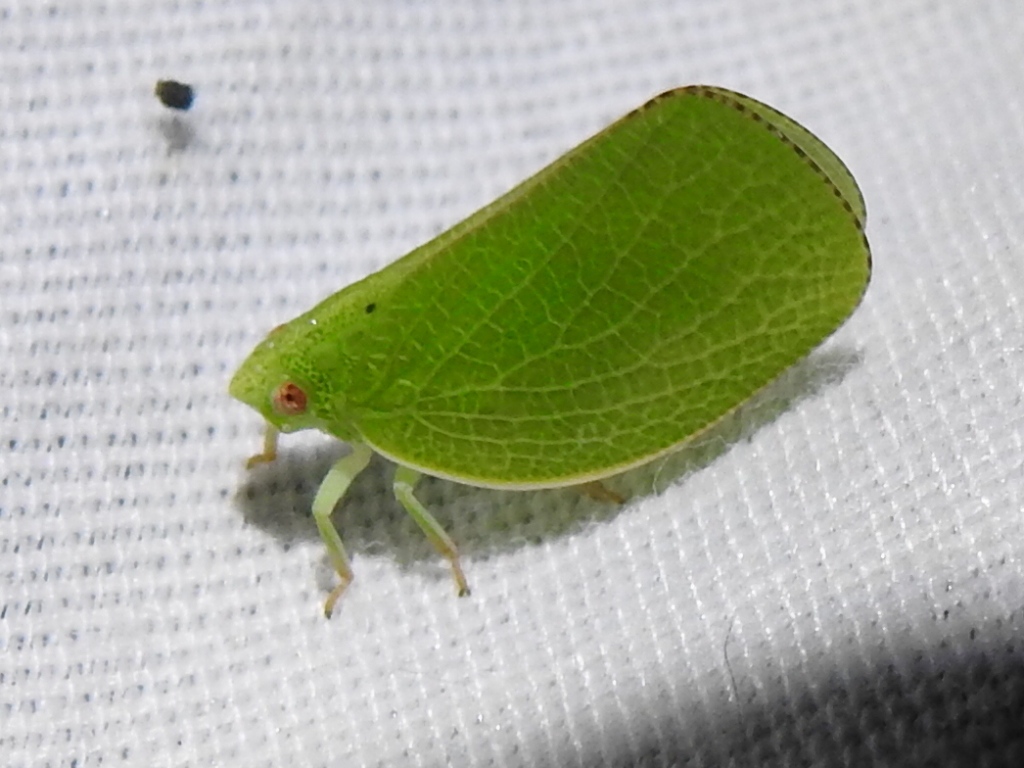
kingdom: Animalia
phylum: Arthropoda
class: Insecta
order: Hemiptera
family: Acanaloniidae
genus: Acanalonia
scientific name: Acanalonia conica
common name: Green cone-headed planthopper
